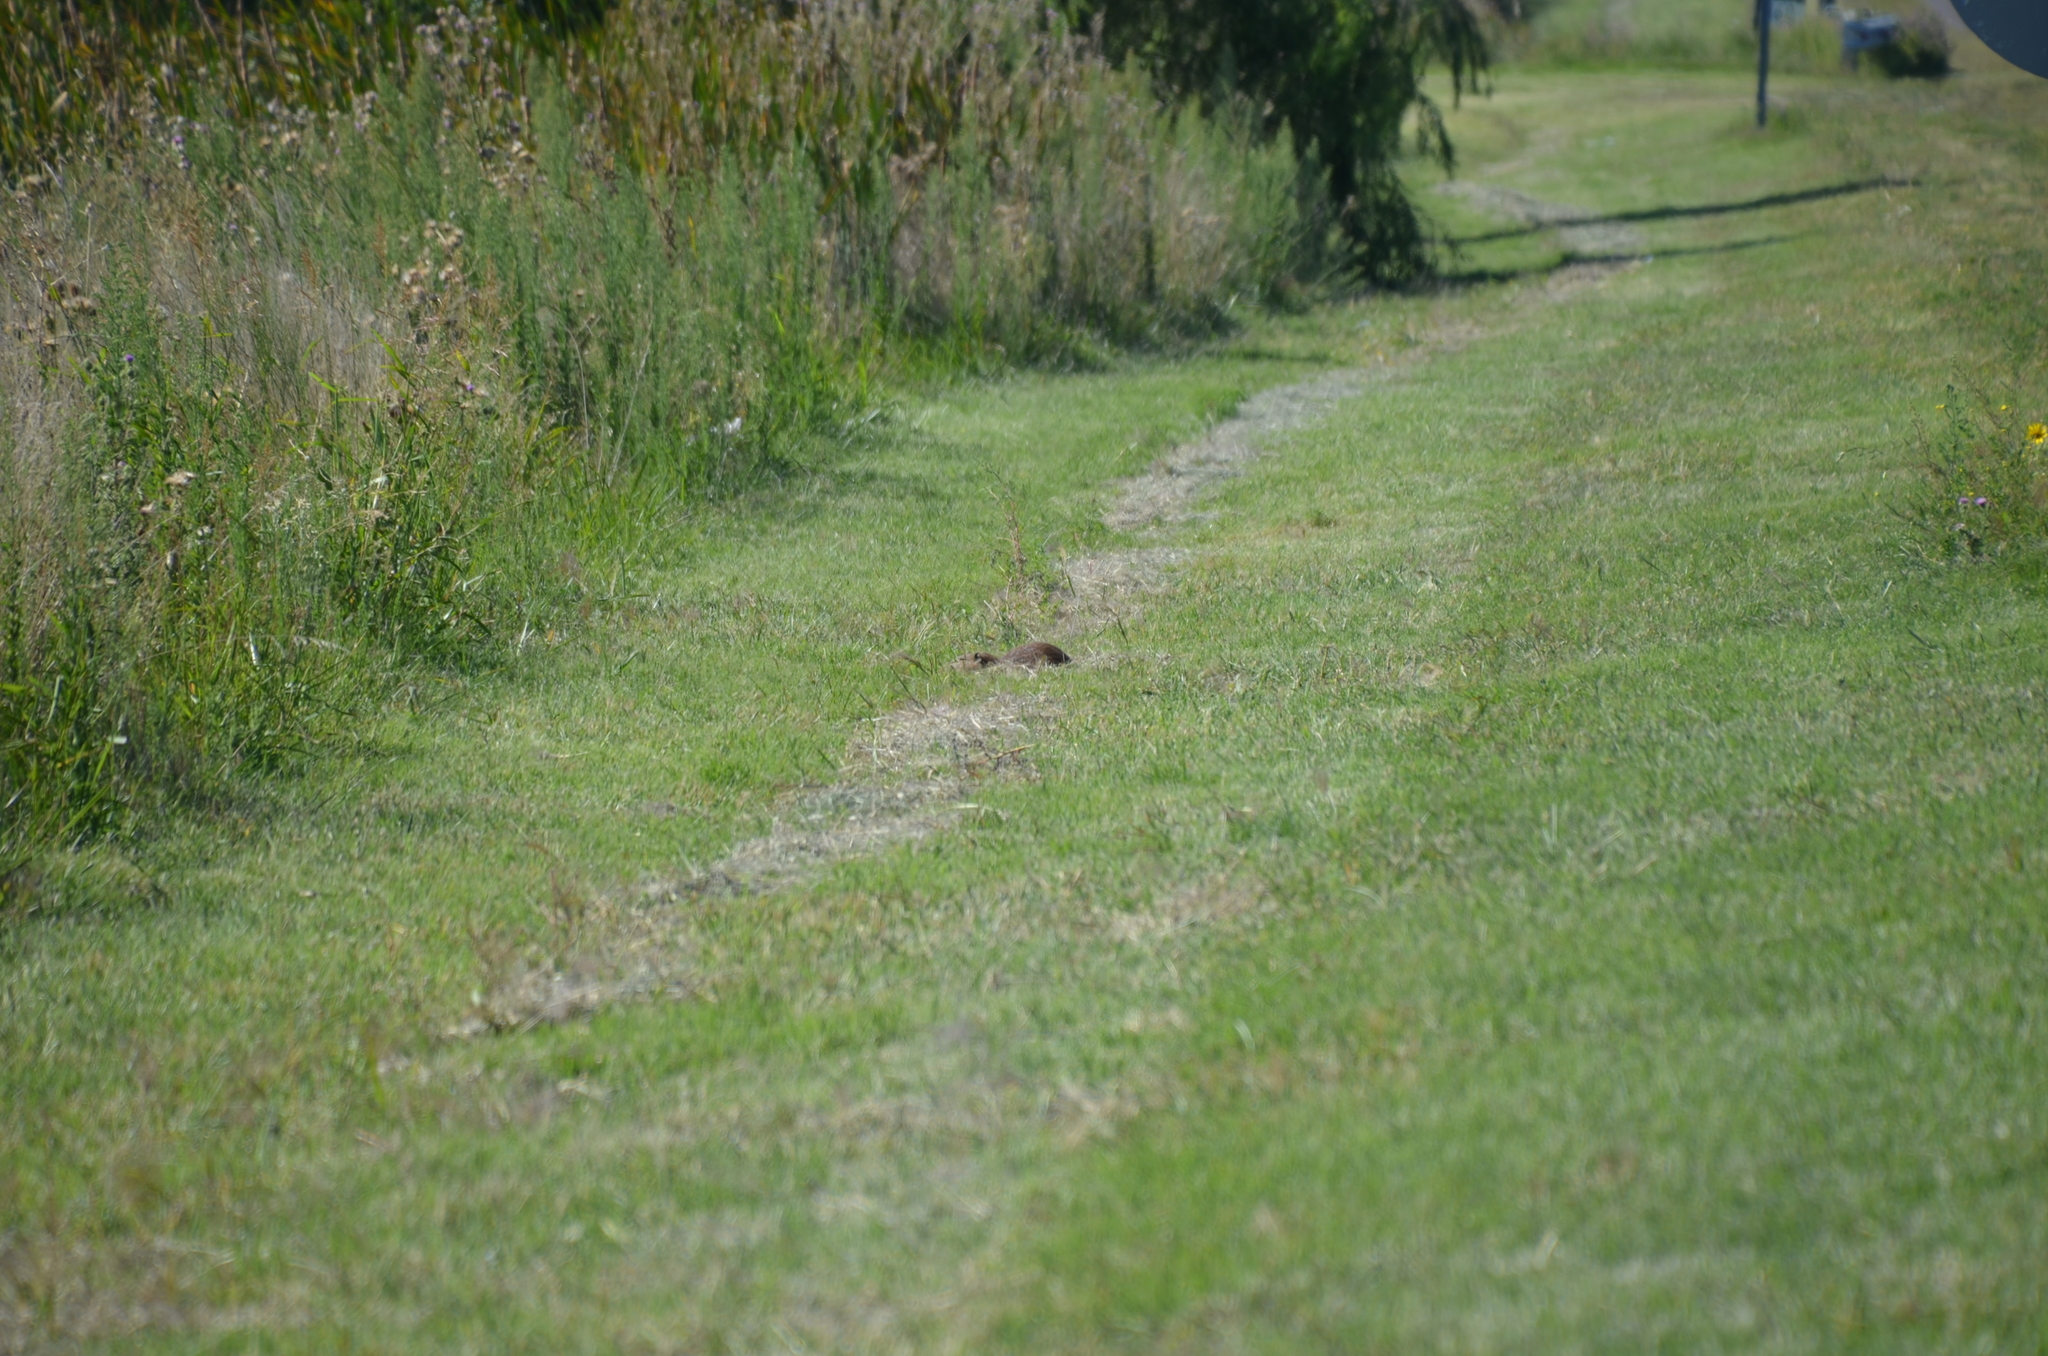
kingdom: Animalia
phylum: Chordata
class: Mammalia
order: Rodentia
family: Myocastoridae
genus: Myocastor
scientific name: Myocastor coypus
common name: Coypu
